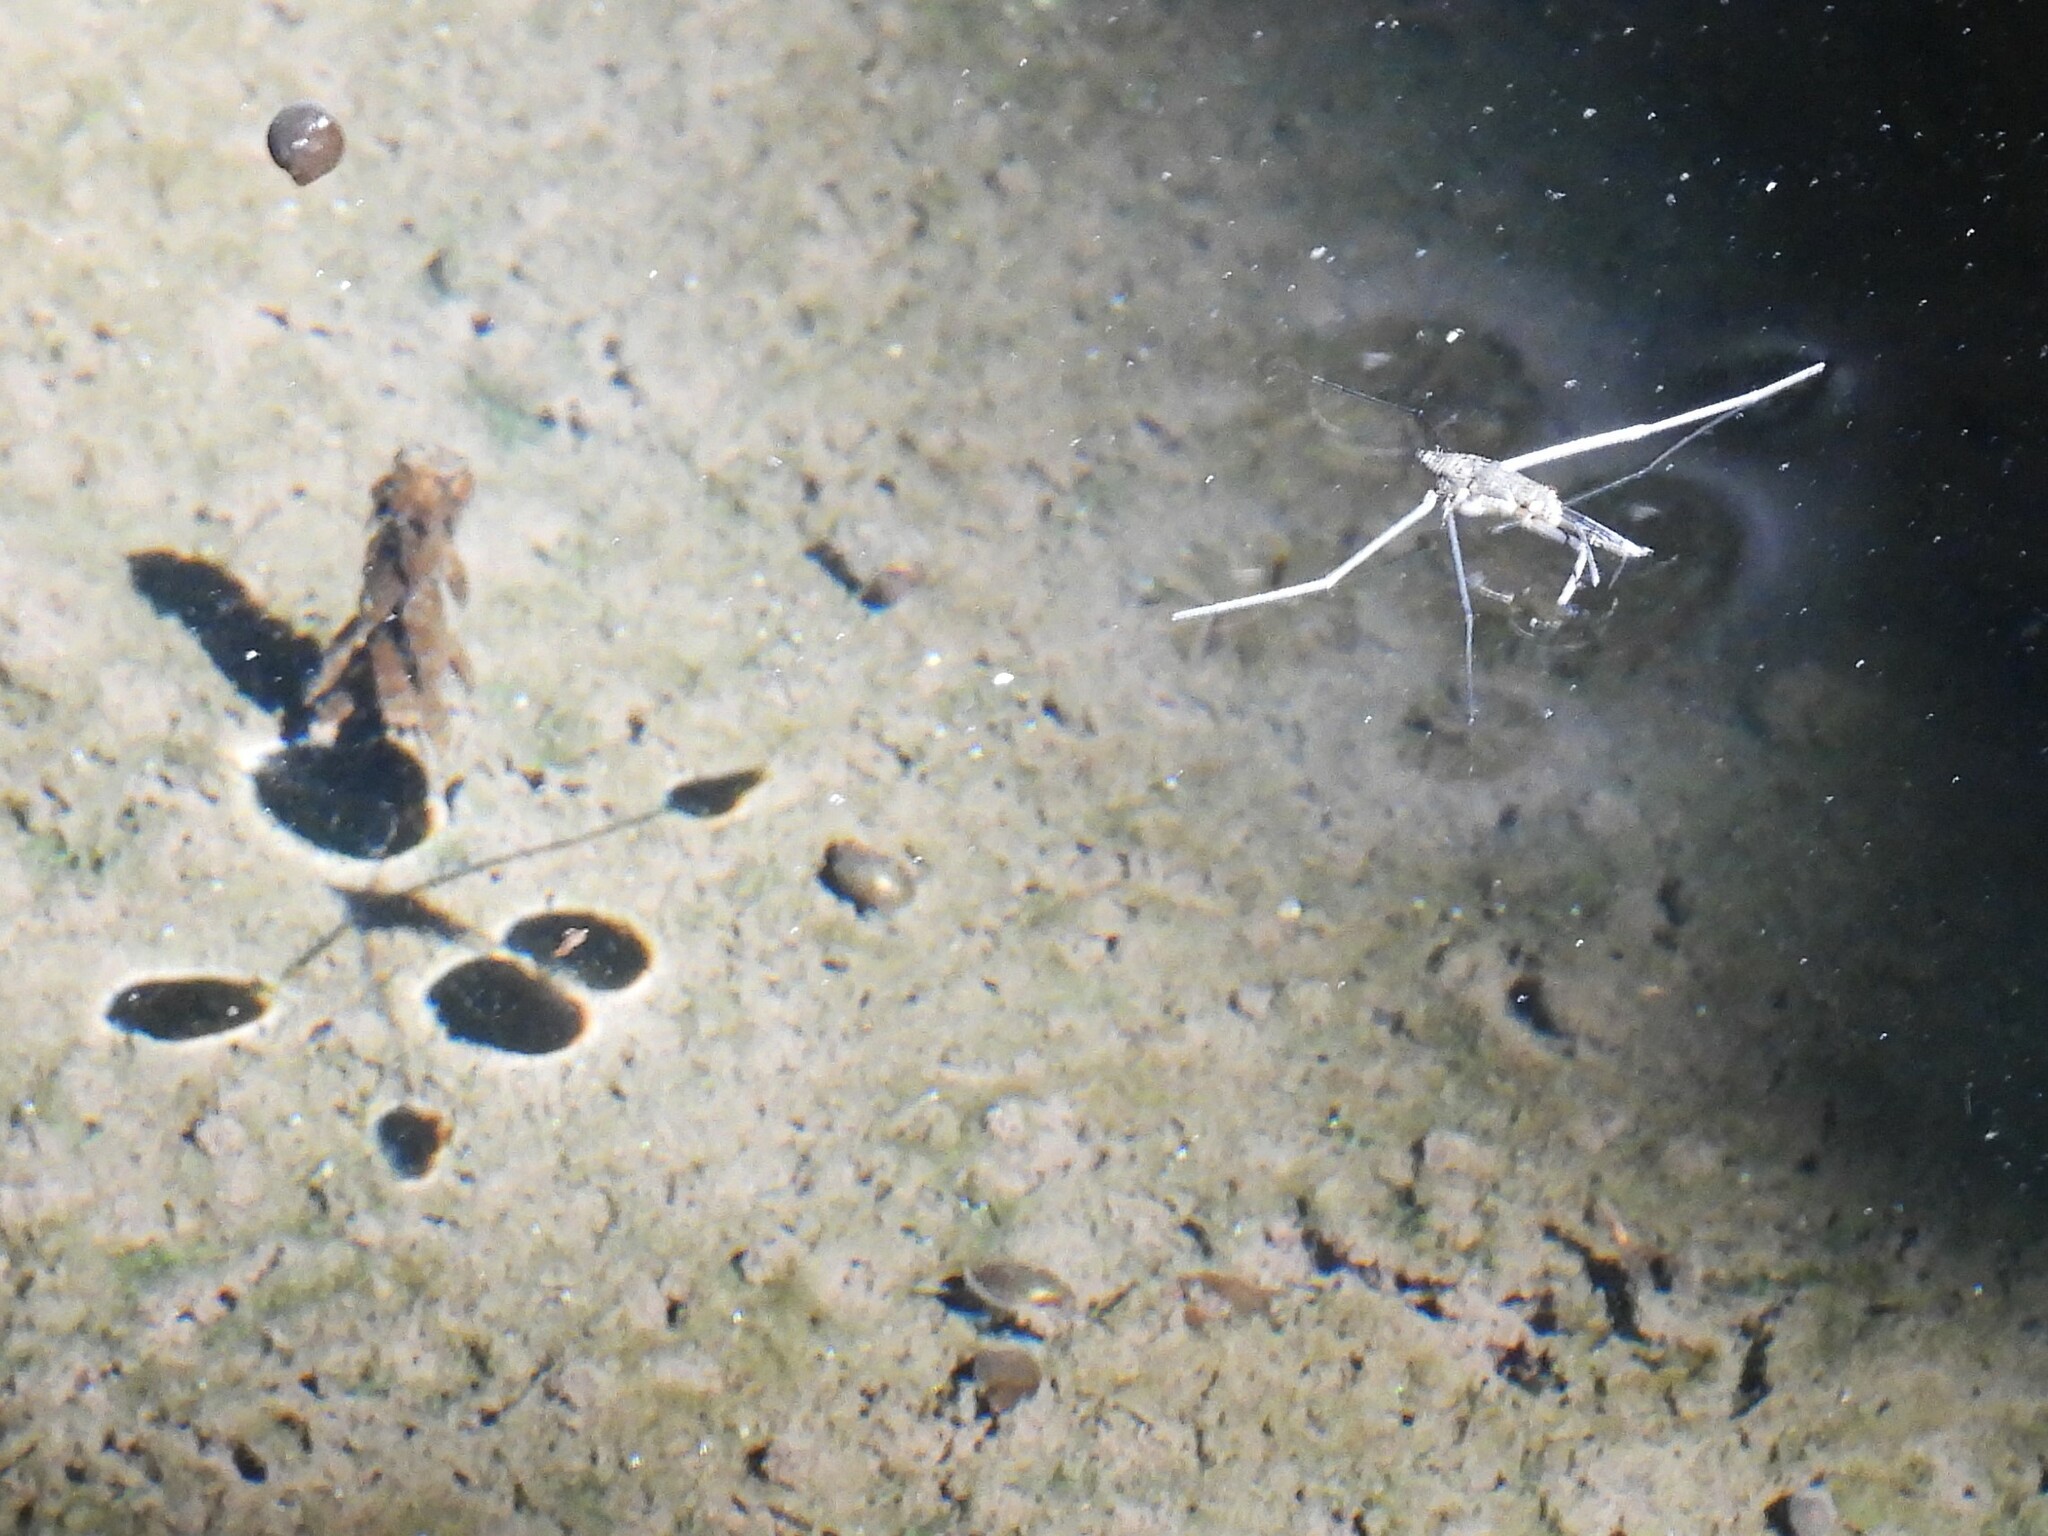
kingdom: Animalia
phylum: Arthropoda
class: Insecta
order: Hemiptera
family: Gerridae
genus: Aquarius
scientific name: Aquarius remigis
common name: Common water strider
